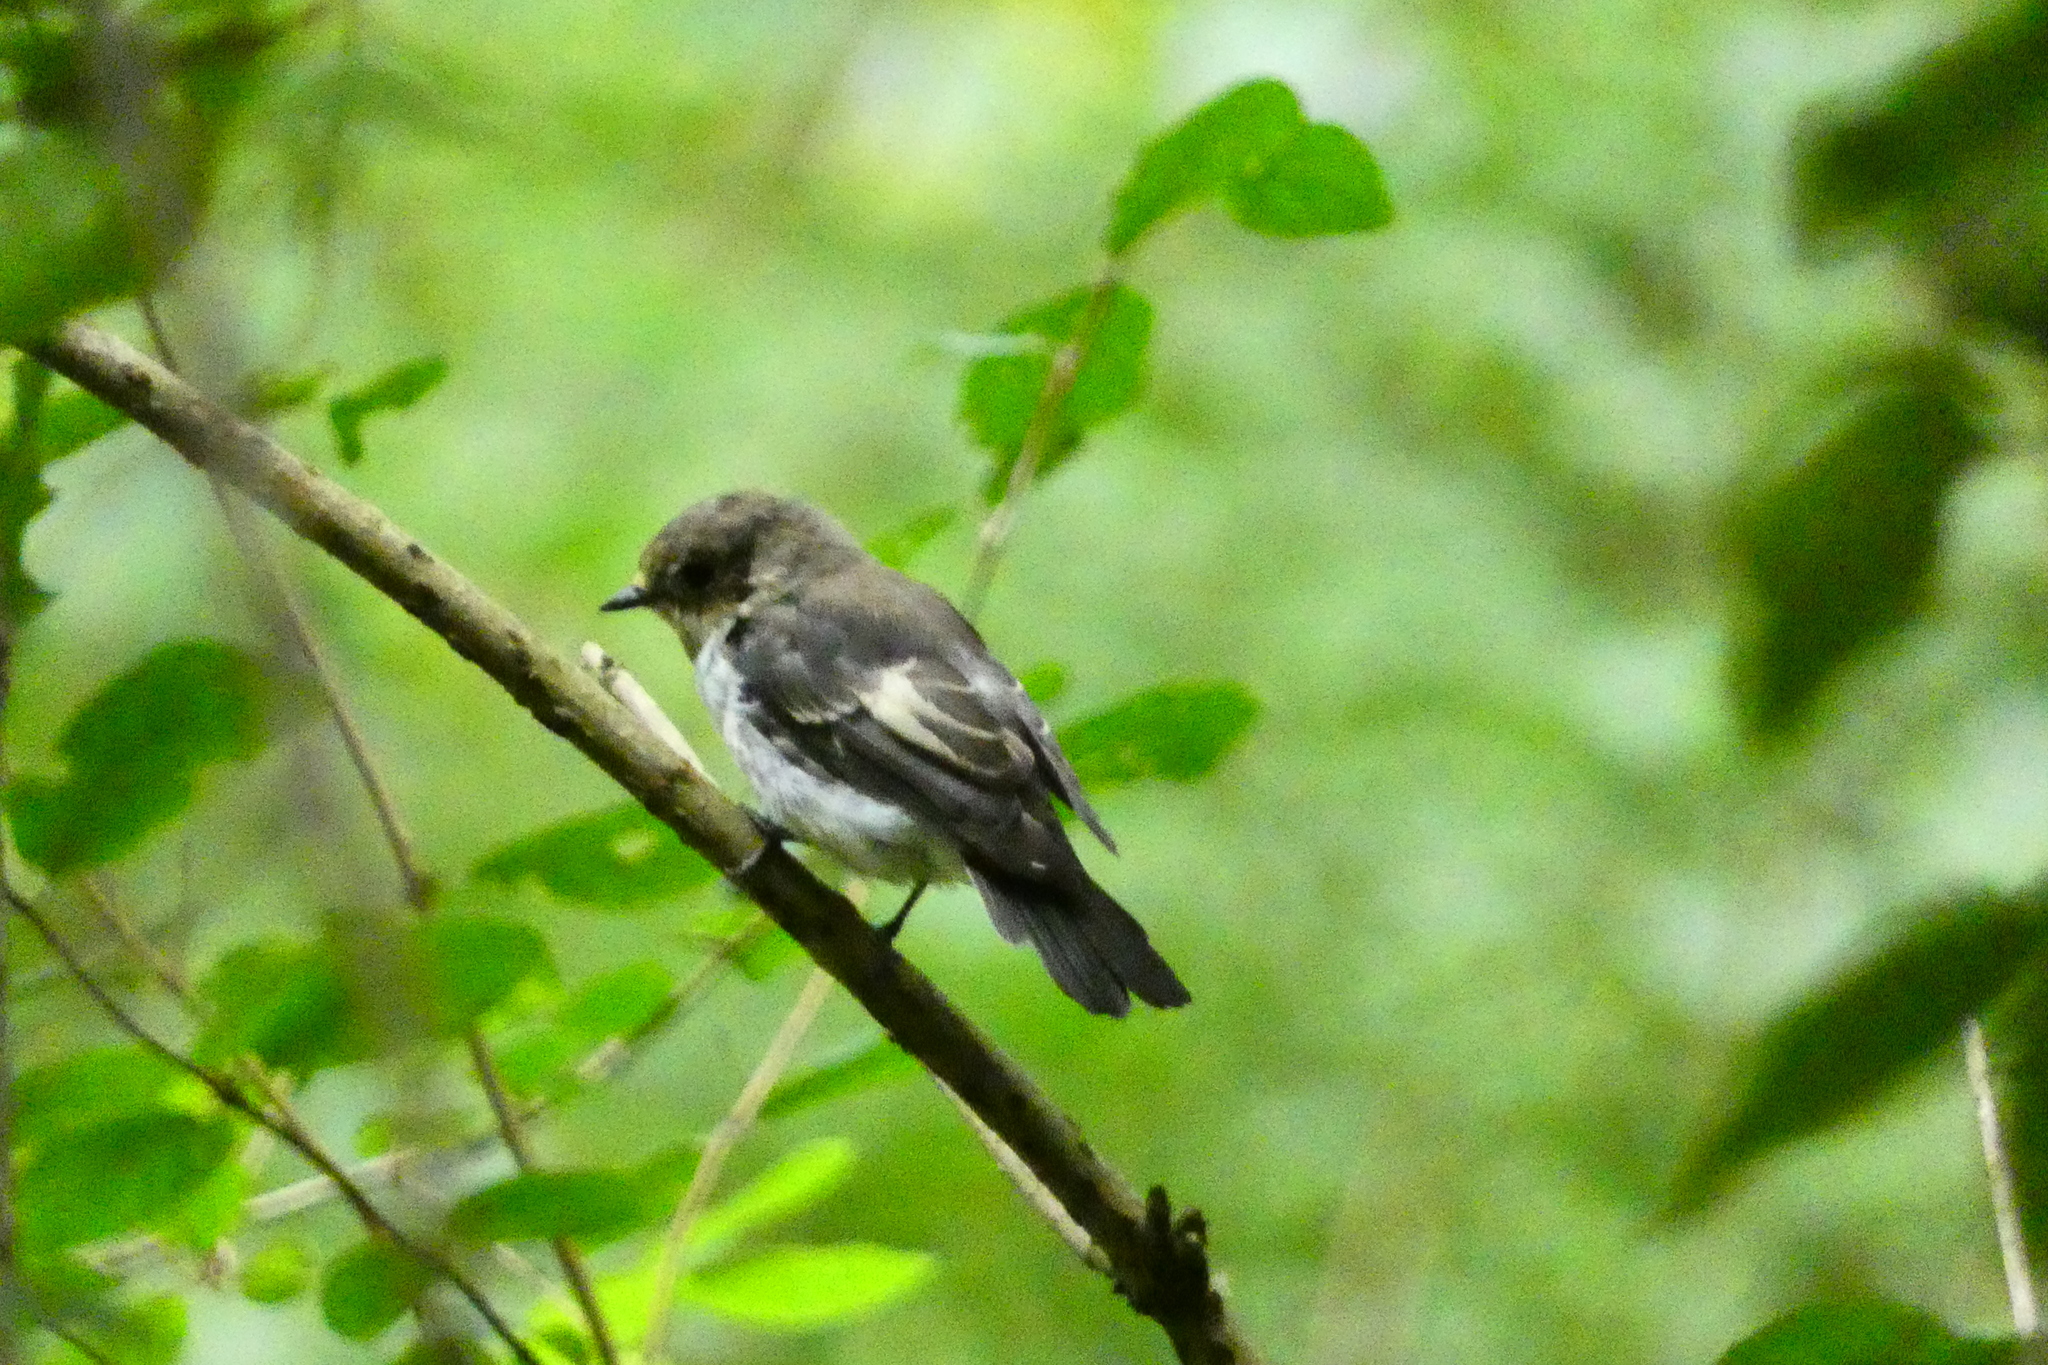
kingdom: Animalia
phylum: Chordata
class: Aves
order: Passeriformes
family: Muscicapidae
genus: Ficedula
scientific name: Ficedula hypoleuca
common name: European pied flycatcher
